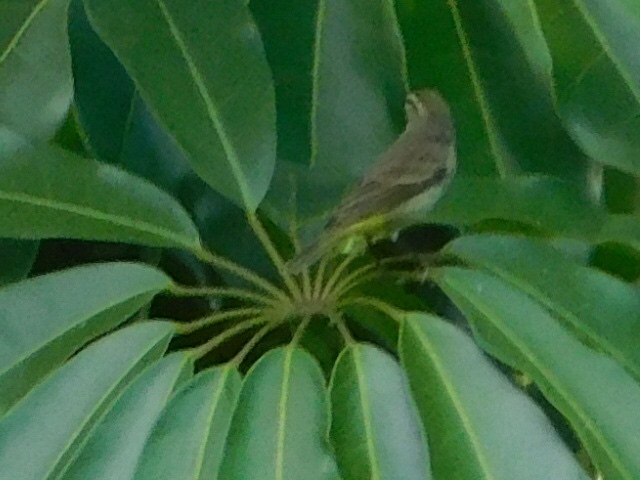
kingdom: Animalia
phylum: Chordata
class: Aves
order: Passeriformes
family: Parulidae
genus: Setophaga
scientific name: Setophaga palmarum
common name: Palm warbler
